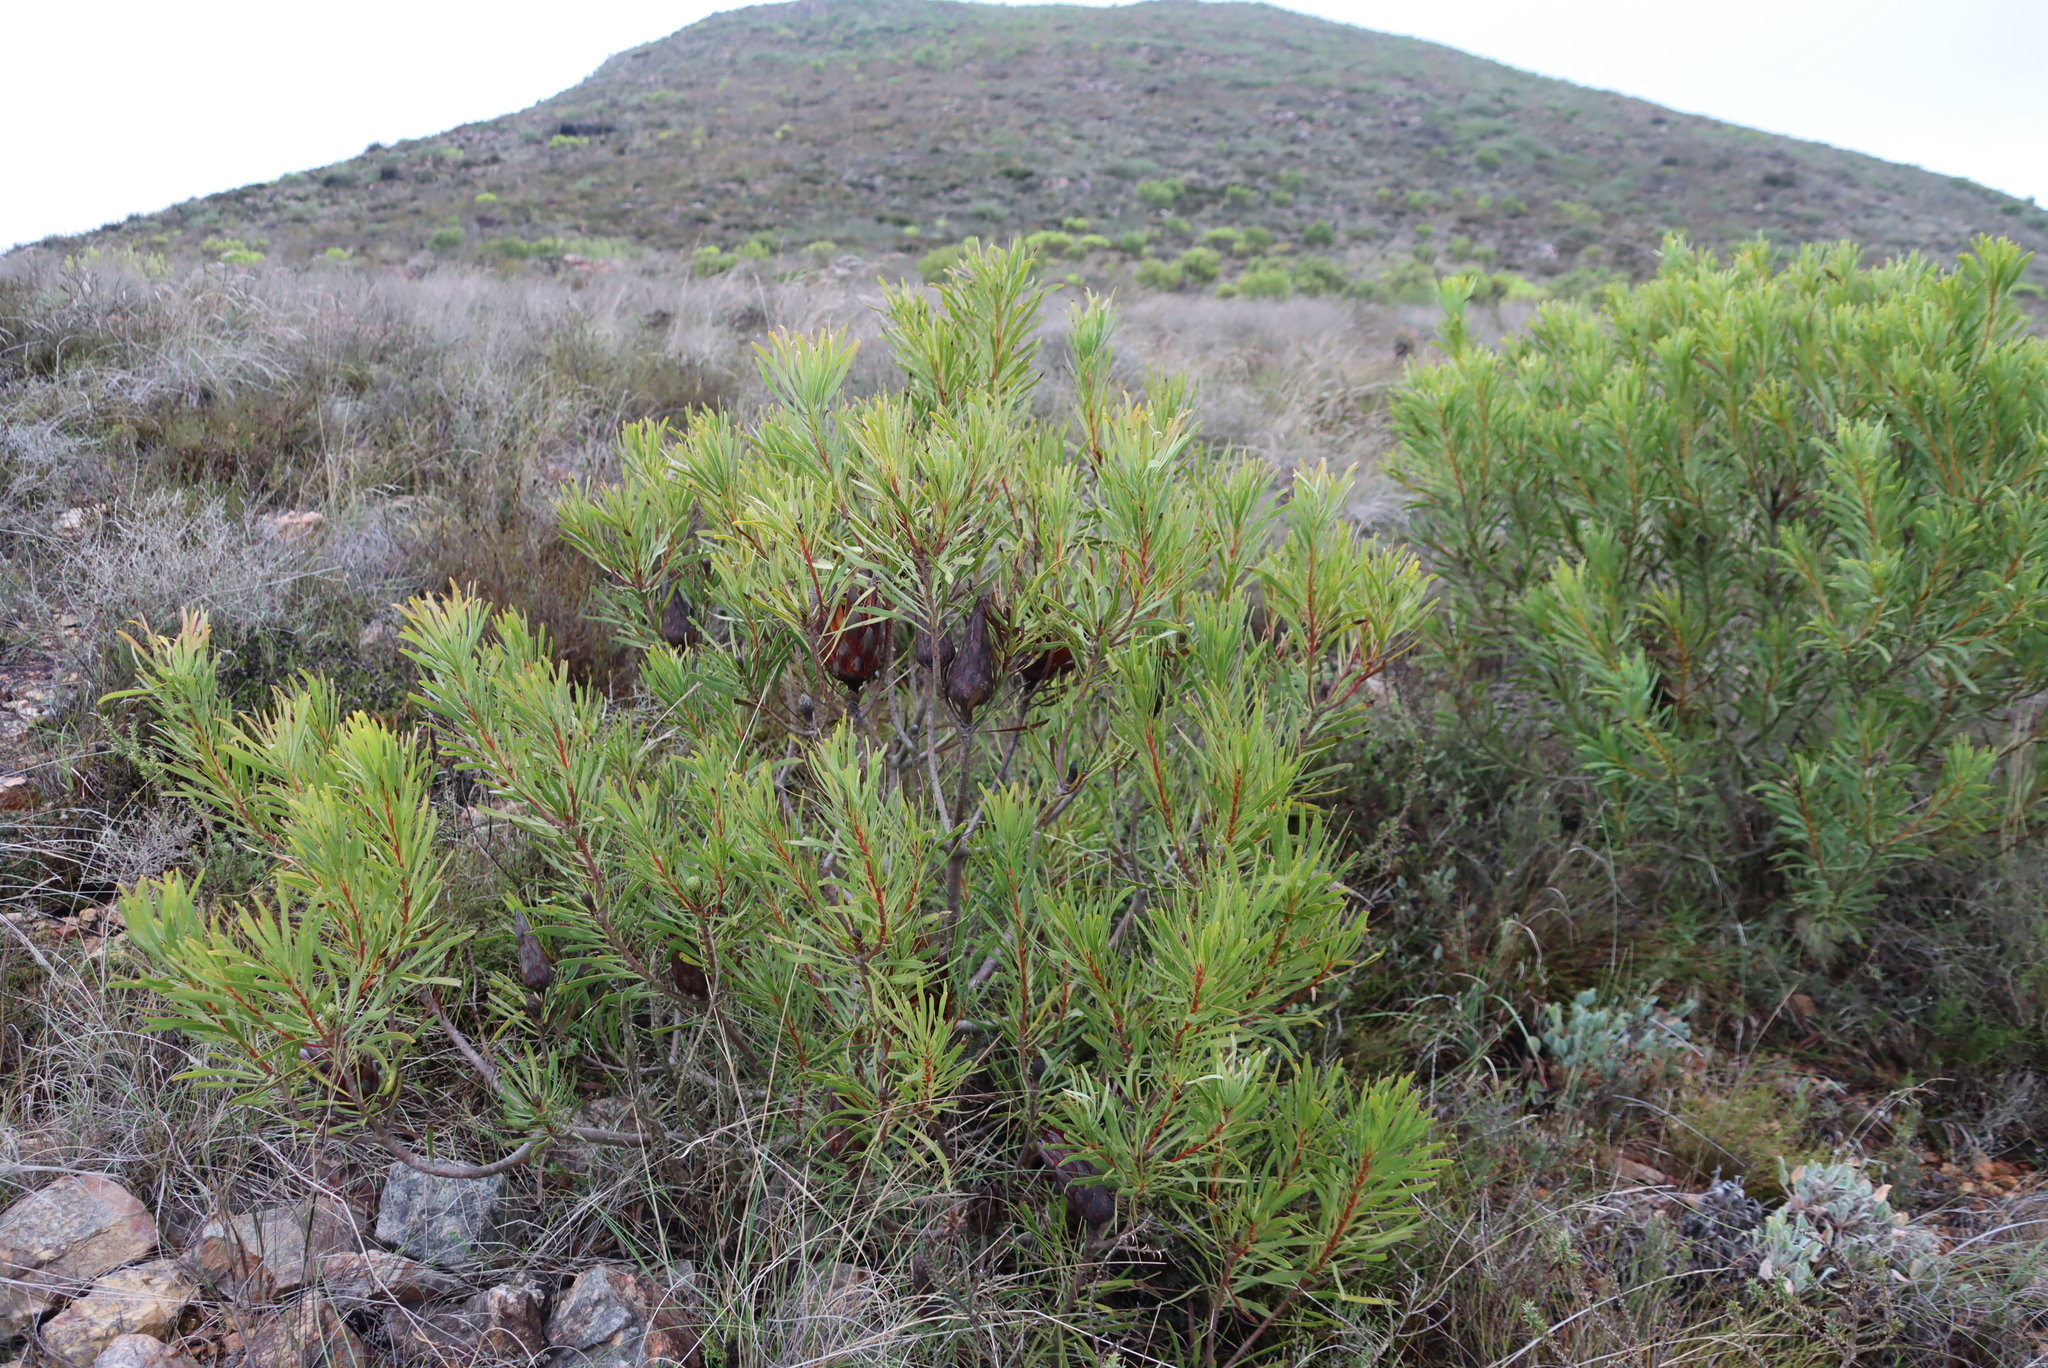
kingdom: Plantae
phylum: Tracheophyta
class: Magnoliopsida
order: Proteales
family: Proteaceae
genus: Protea
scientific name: Protea repens
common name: Sugarbush
